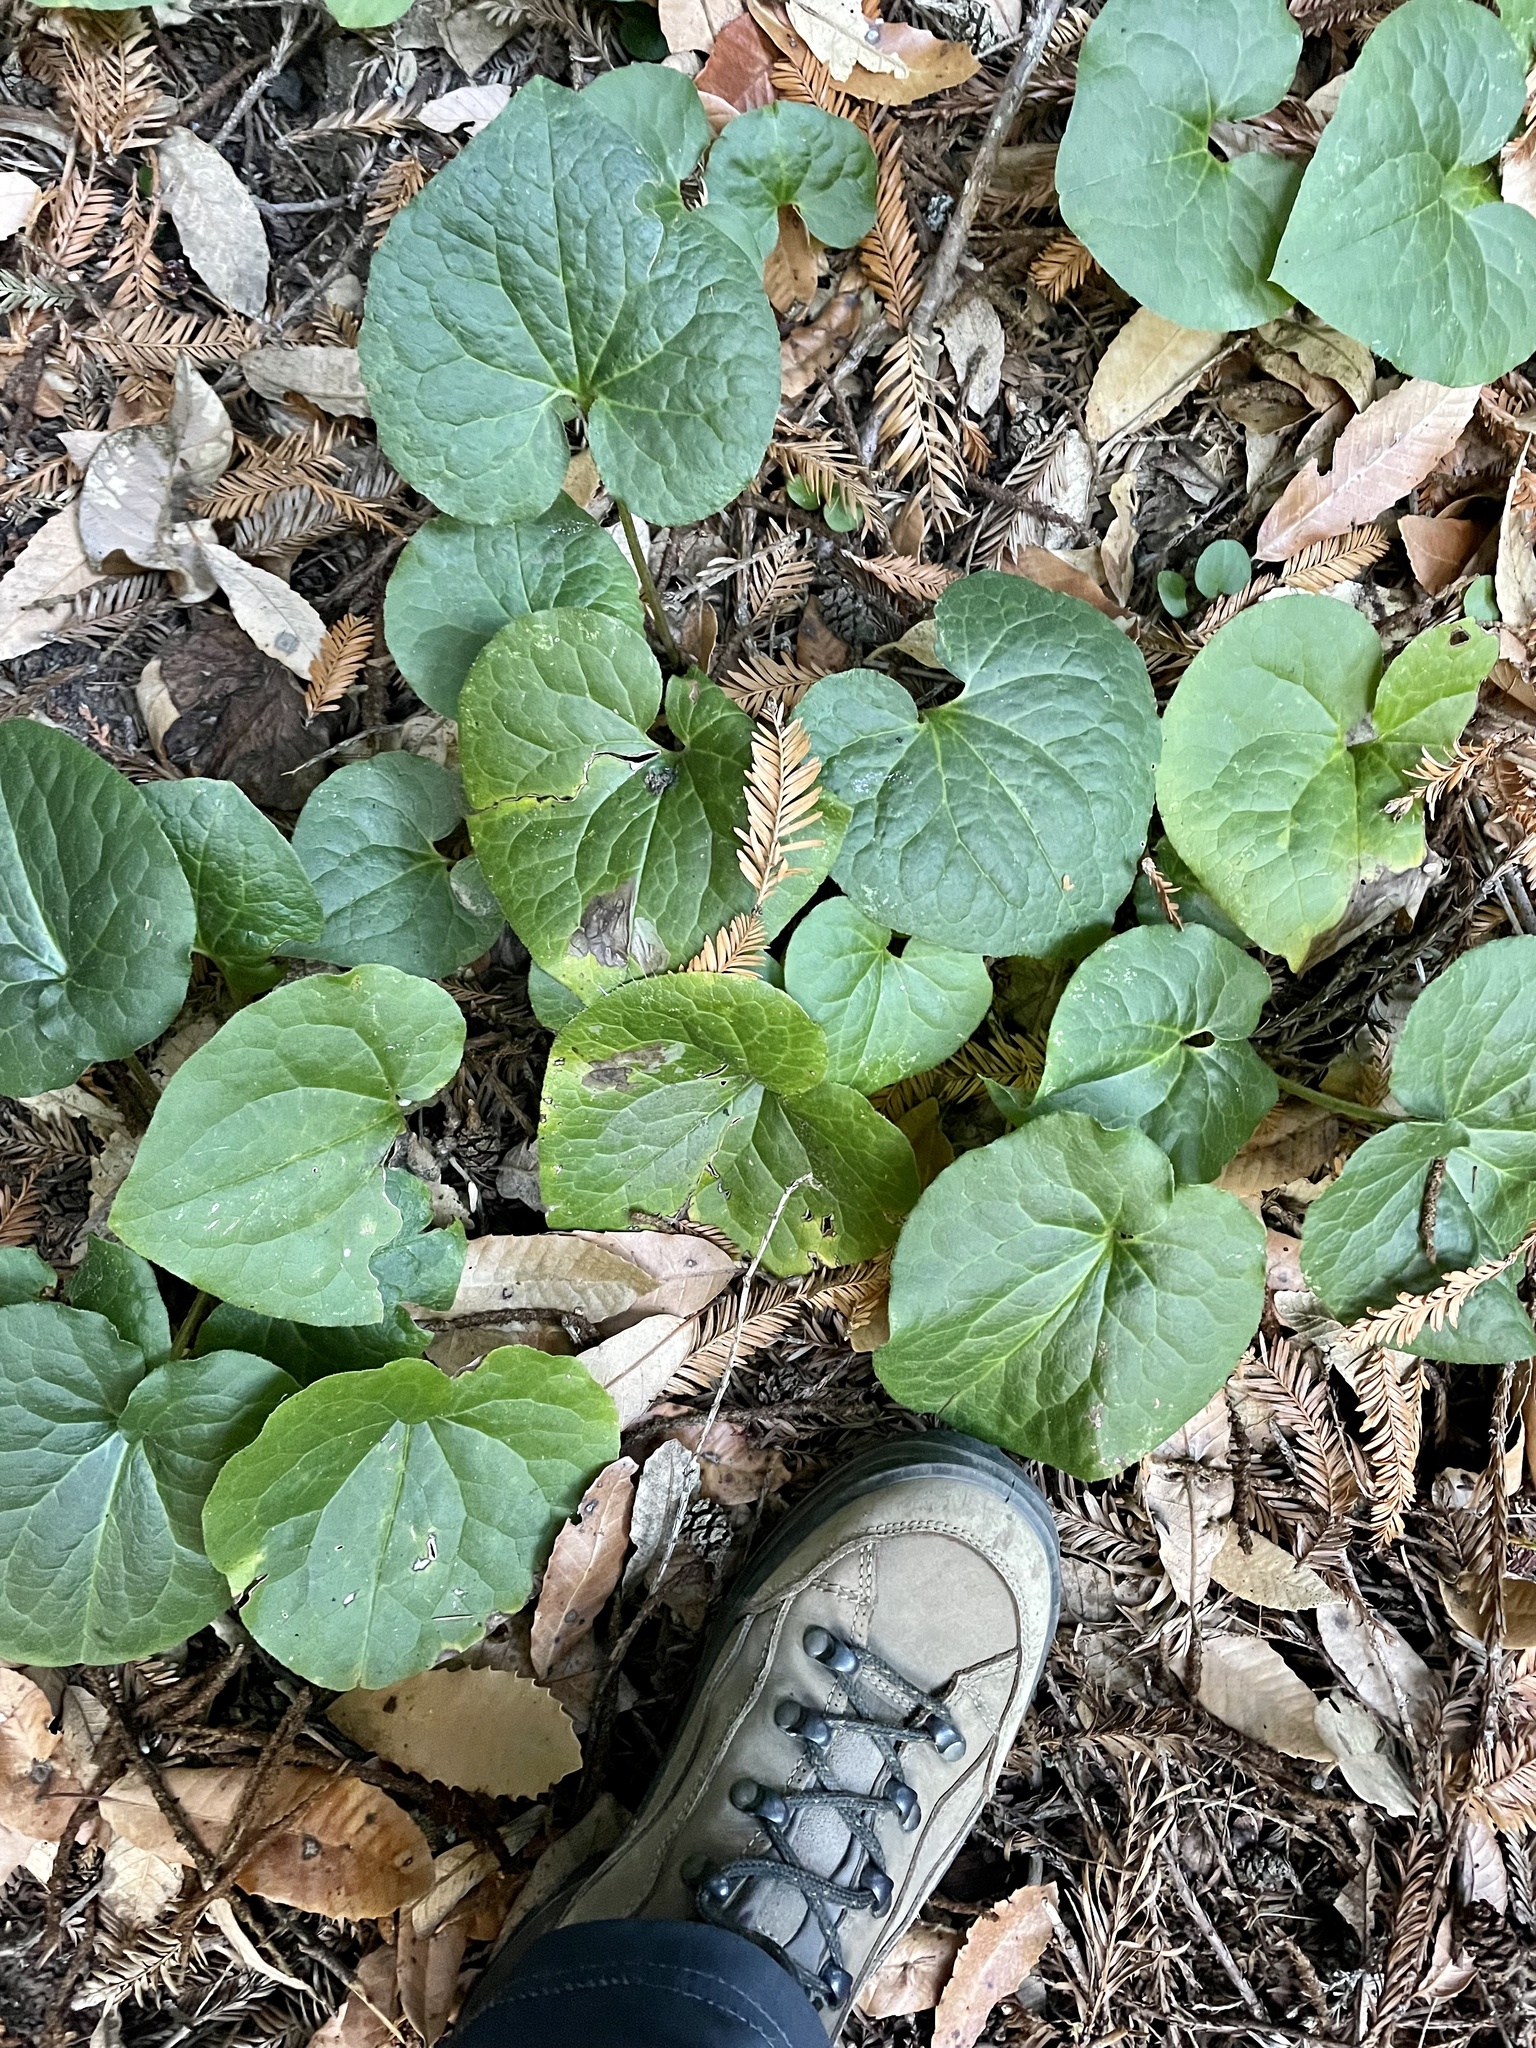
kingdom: Plantae
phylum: Tracheophyta
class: Magnoliopsida
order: Piperales
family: Aristolochiaceae
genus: Asarum
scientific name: Asarum caudatum
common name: Wild ginger
